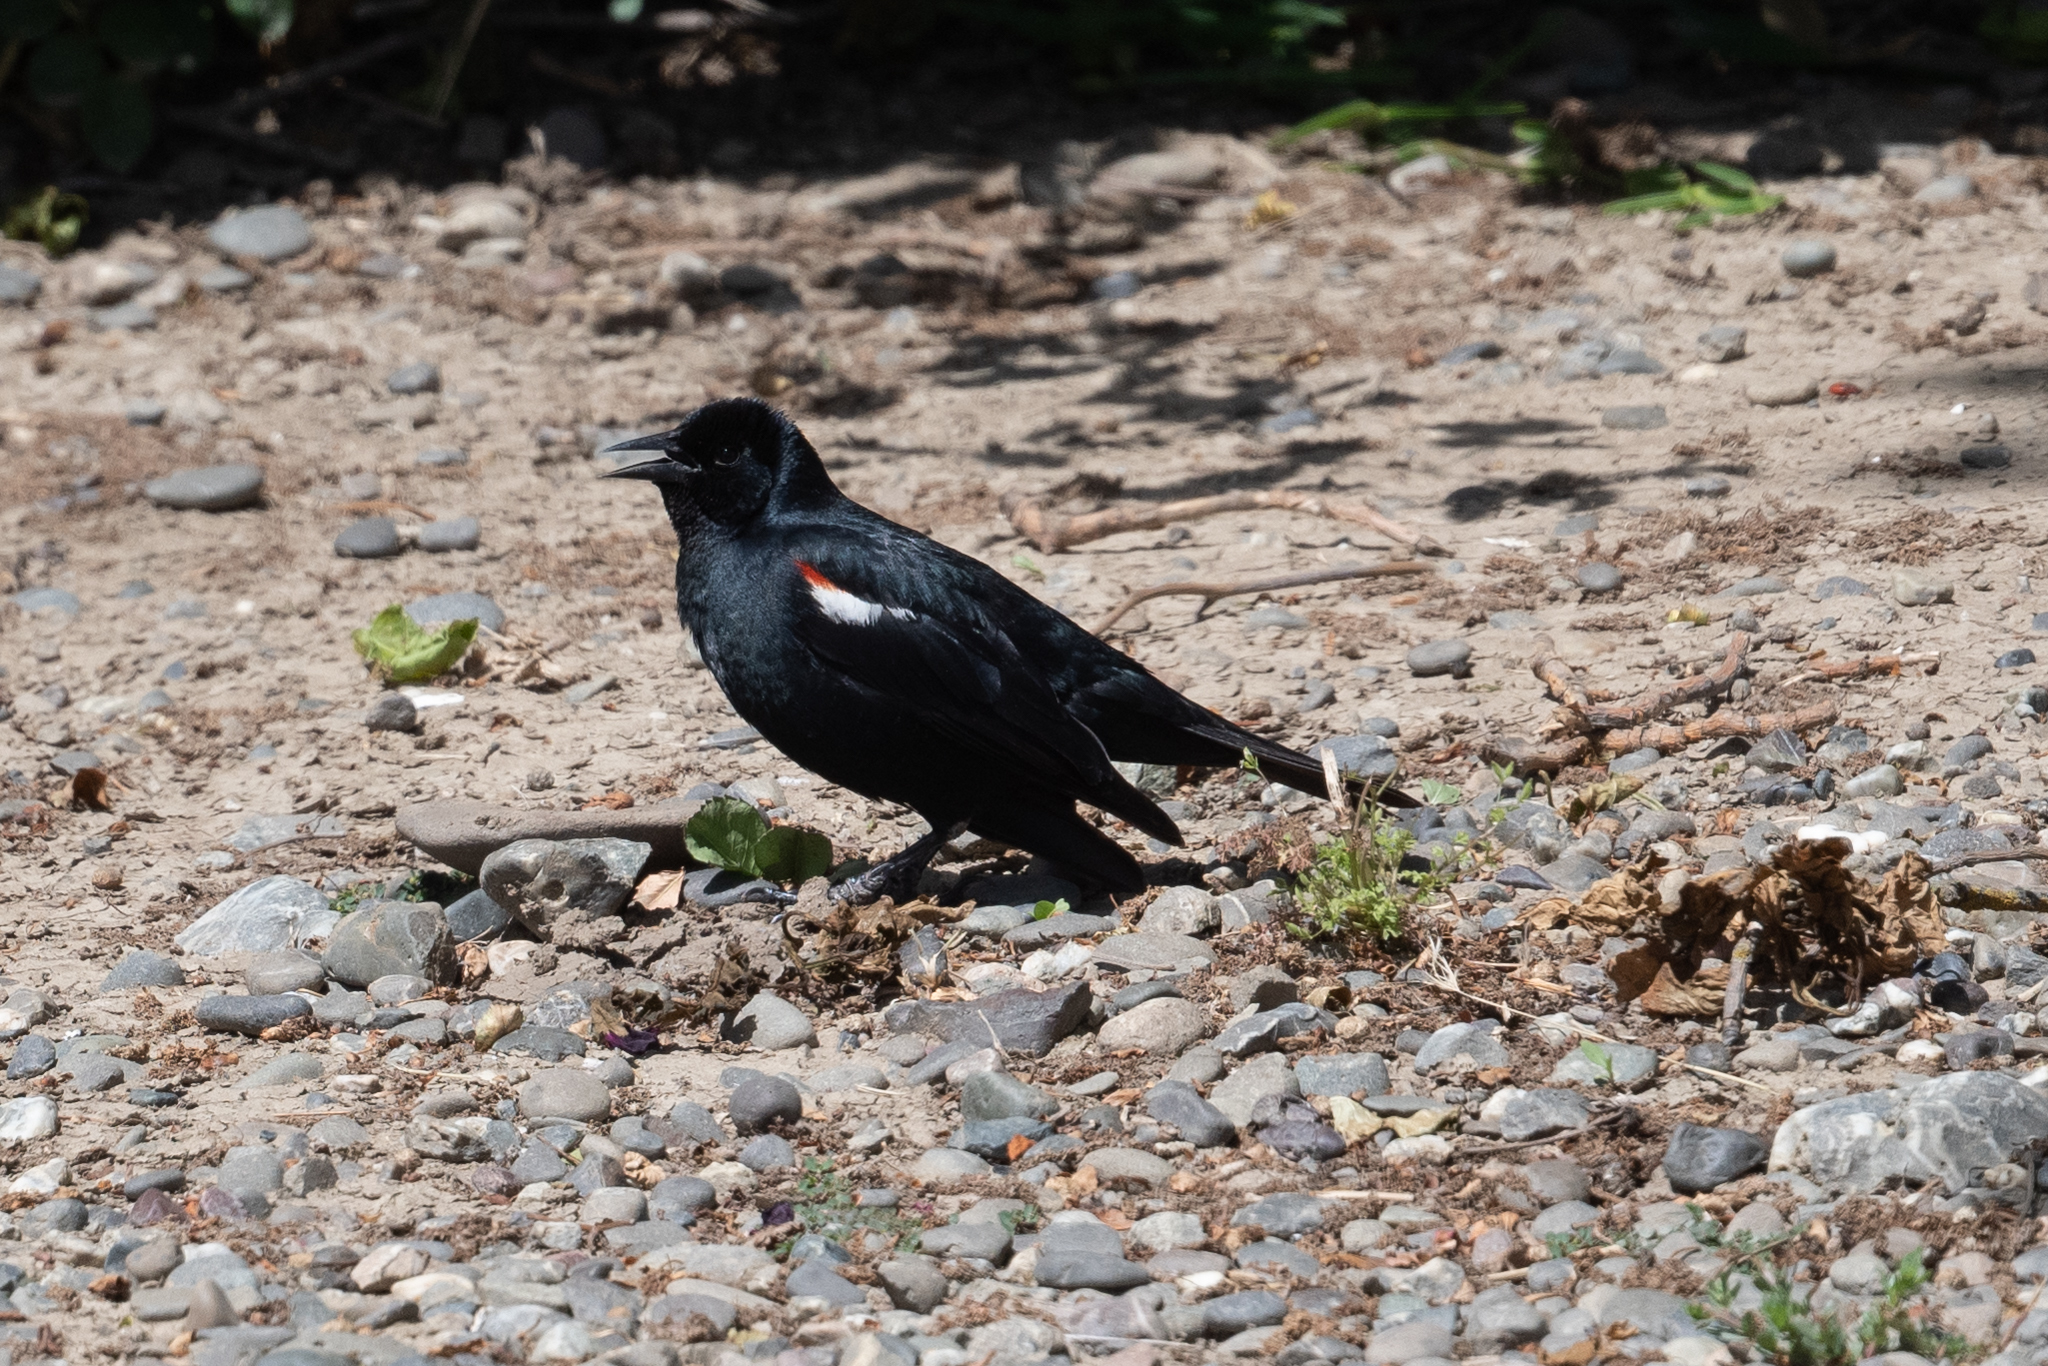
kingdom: Animalia
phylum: Chordata
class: Aves
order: Passeriformes
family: Icteridae
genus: Agelaius
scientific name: Agelaius tricolor
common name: Tricolored blackbird
